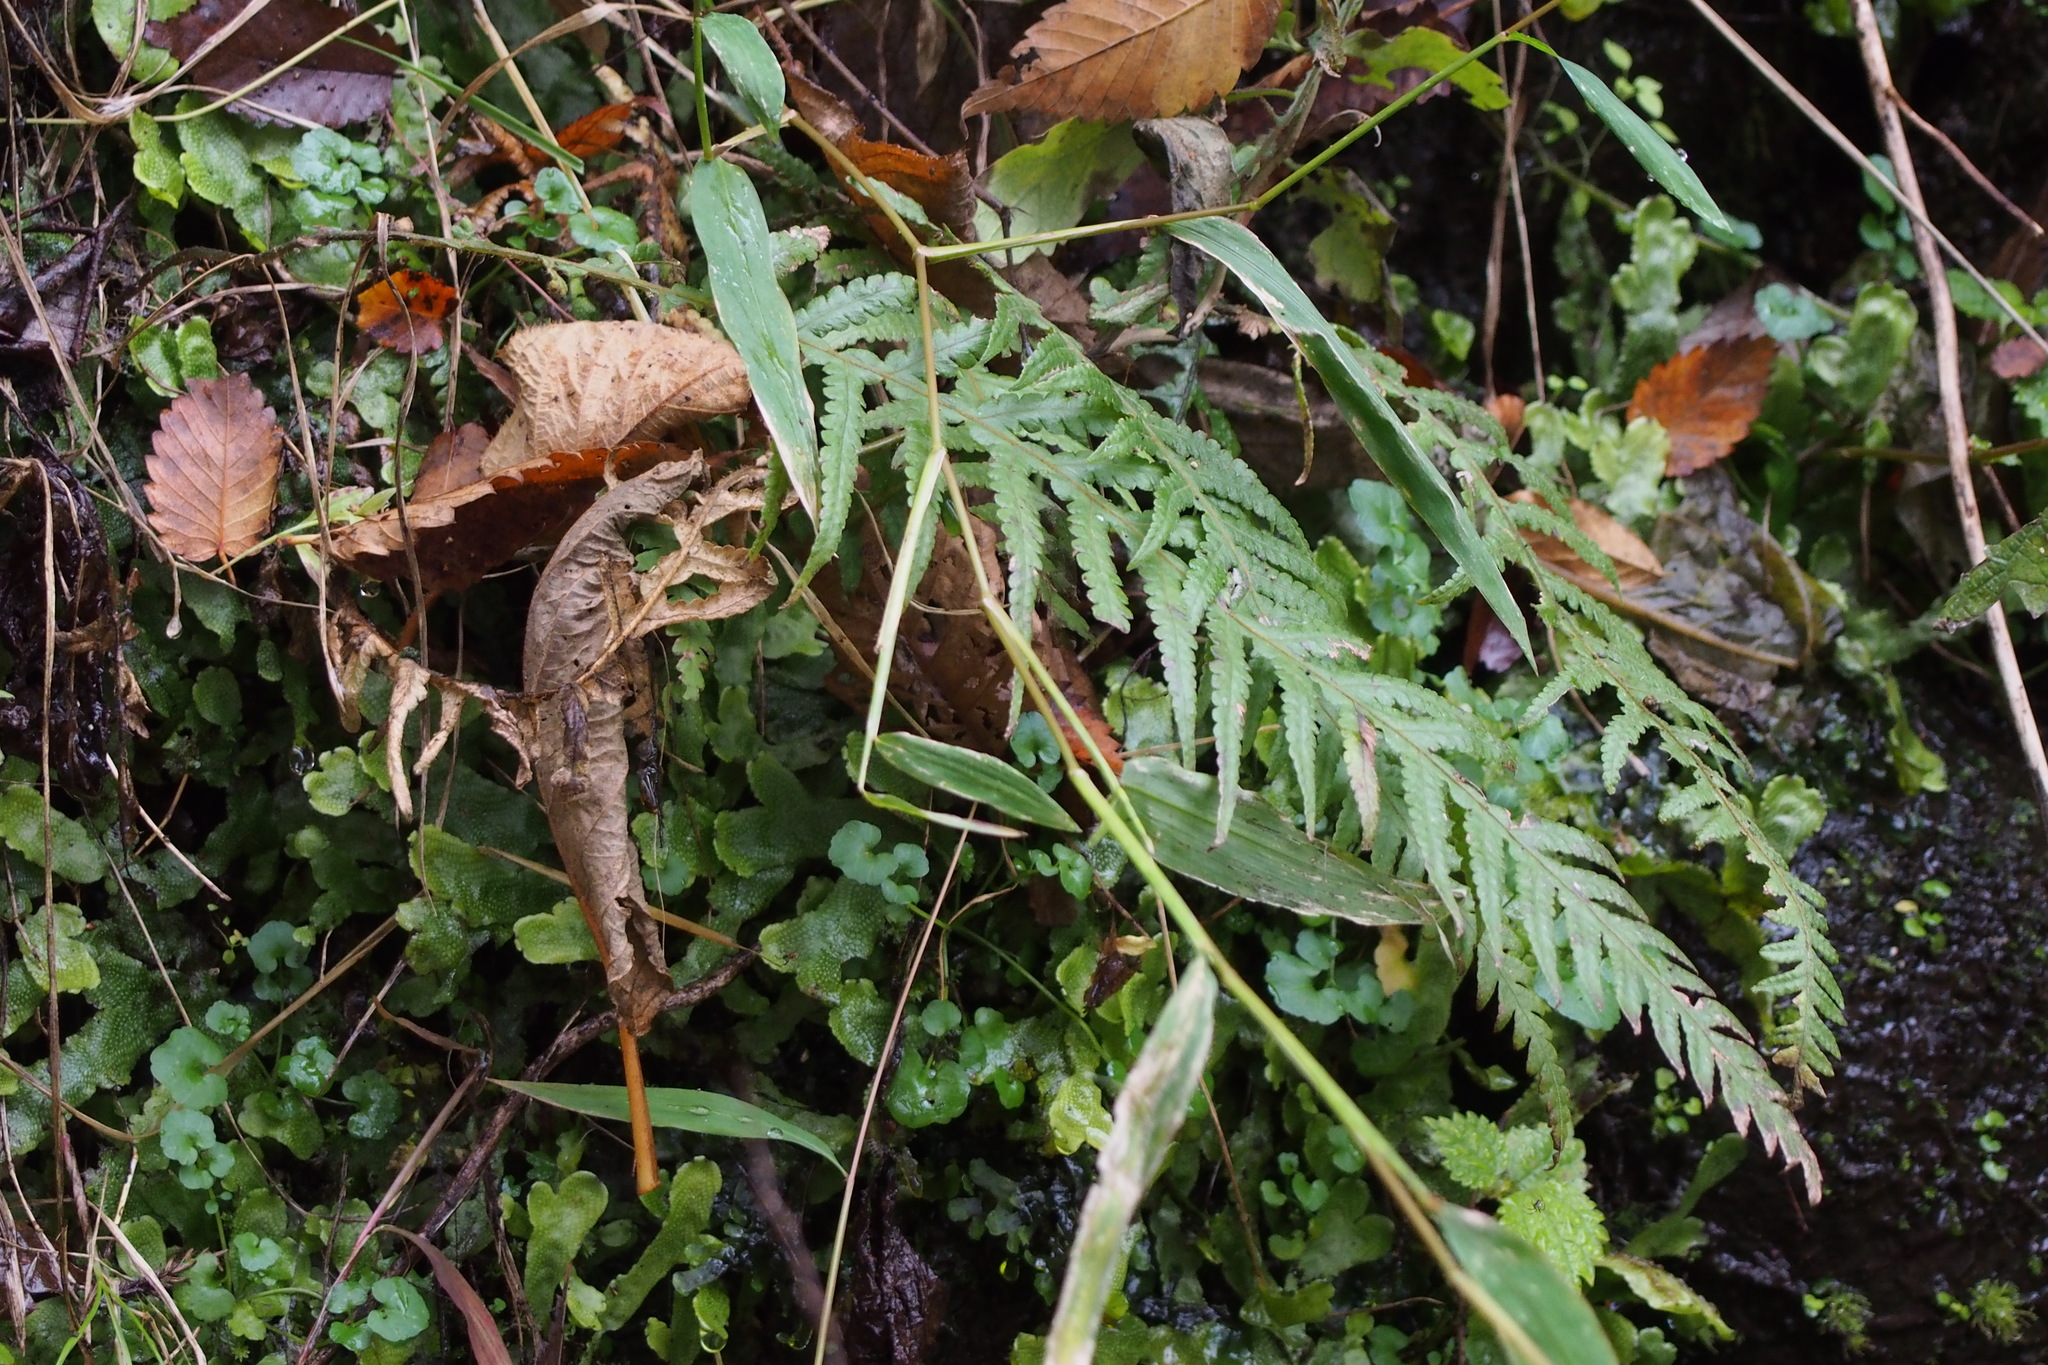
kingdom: Plantae
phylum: Tracheophyta
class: Polypodiopsida
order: Polypodiales
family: Thelypteridaceae
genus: Phegopteris
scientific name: Phegopteris decursive-pinnata
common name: Japanese beech fern
